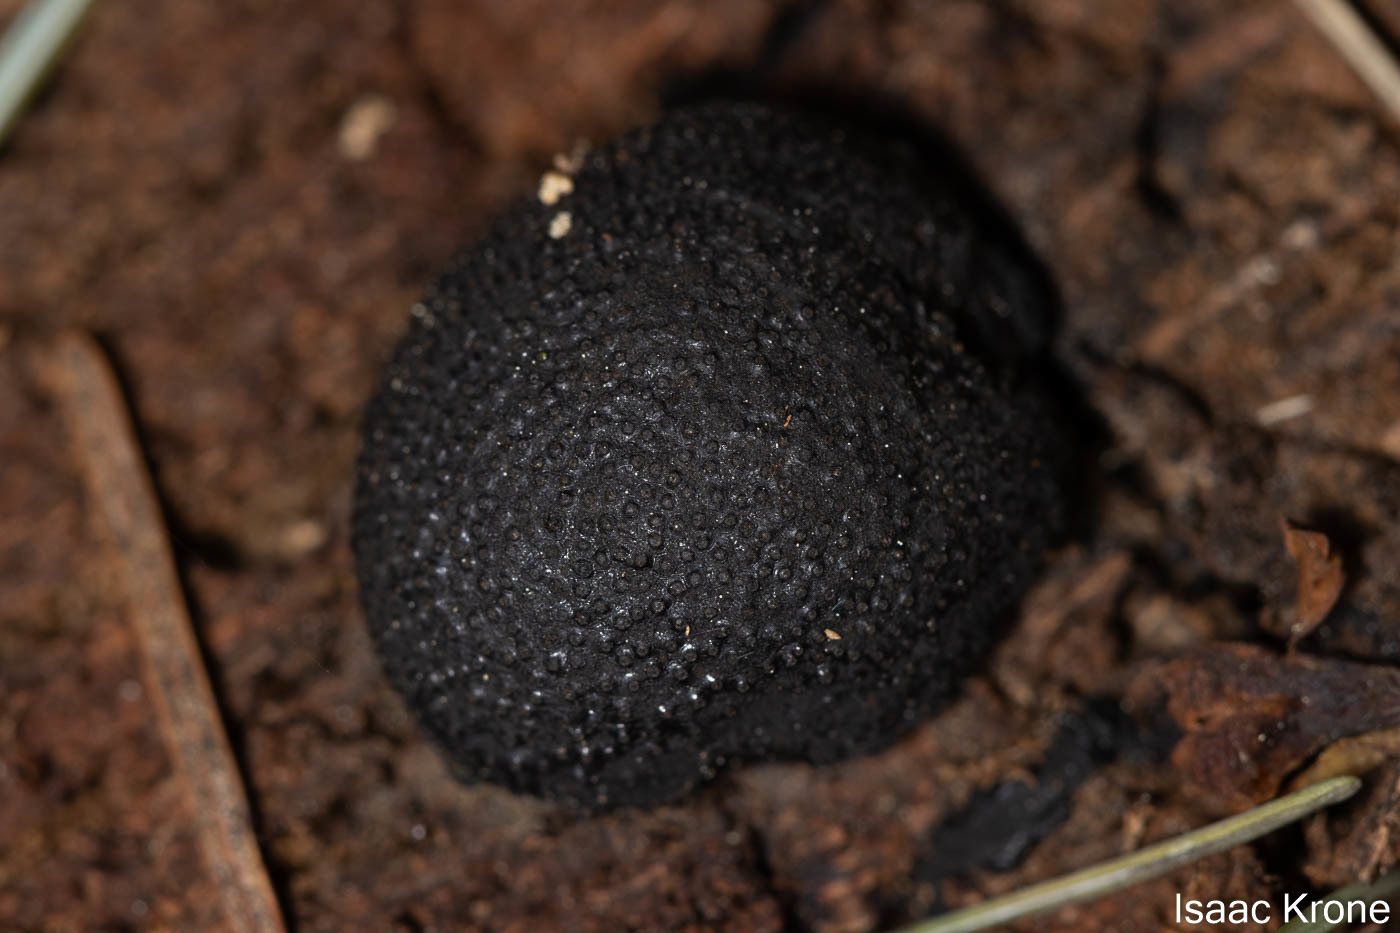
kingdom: Fungi
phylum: Ascomycota
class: Sordariomycetes
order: Xylariales
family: Hypoxylaceae
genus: Annulohypoxylon
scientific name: Annulohypoxylon thouarsianum
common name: Cramp balls
